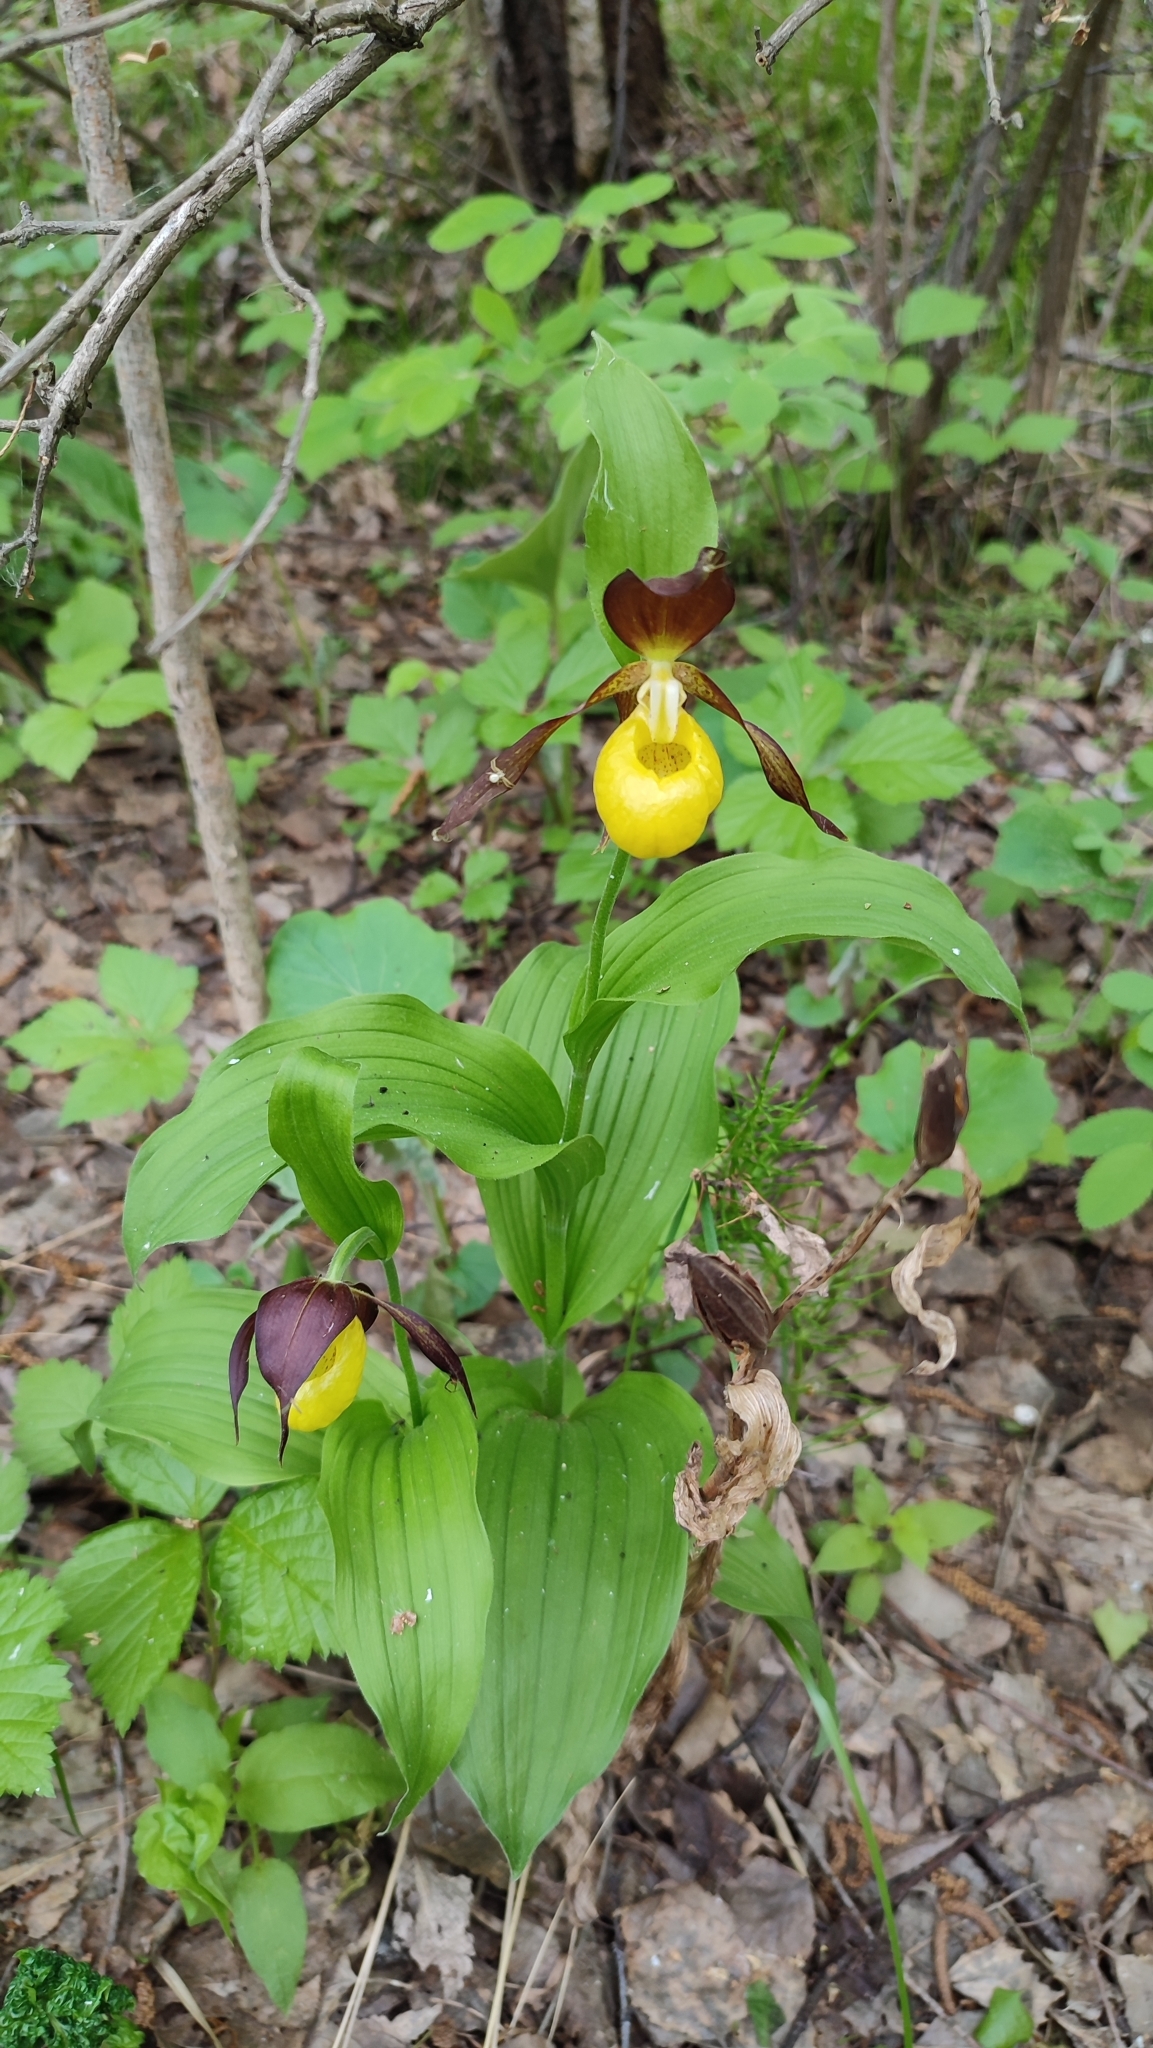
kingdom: Plantae
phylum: Tracheophyta
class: Liliopsida
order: Asparagales
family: Orchidaceae
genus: Cypripedium
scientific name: Cypripedium calceolus
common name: Lady's-slipper
